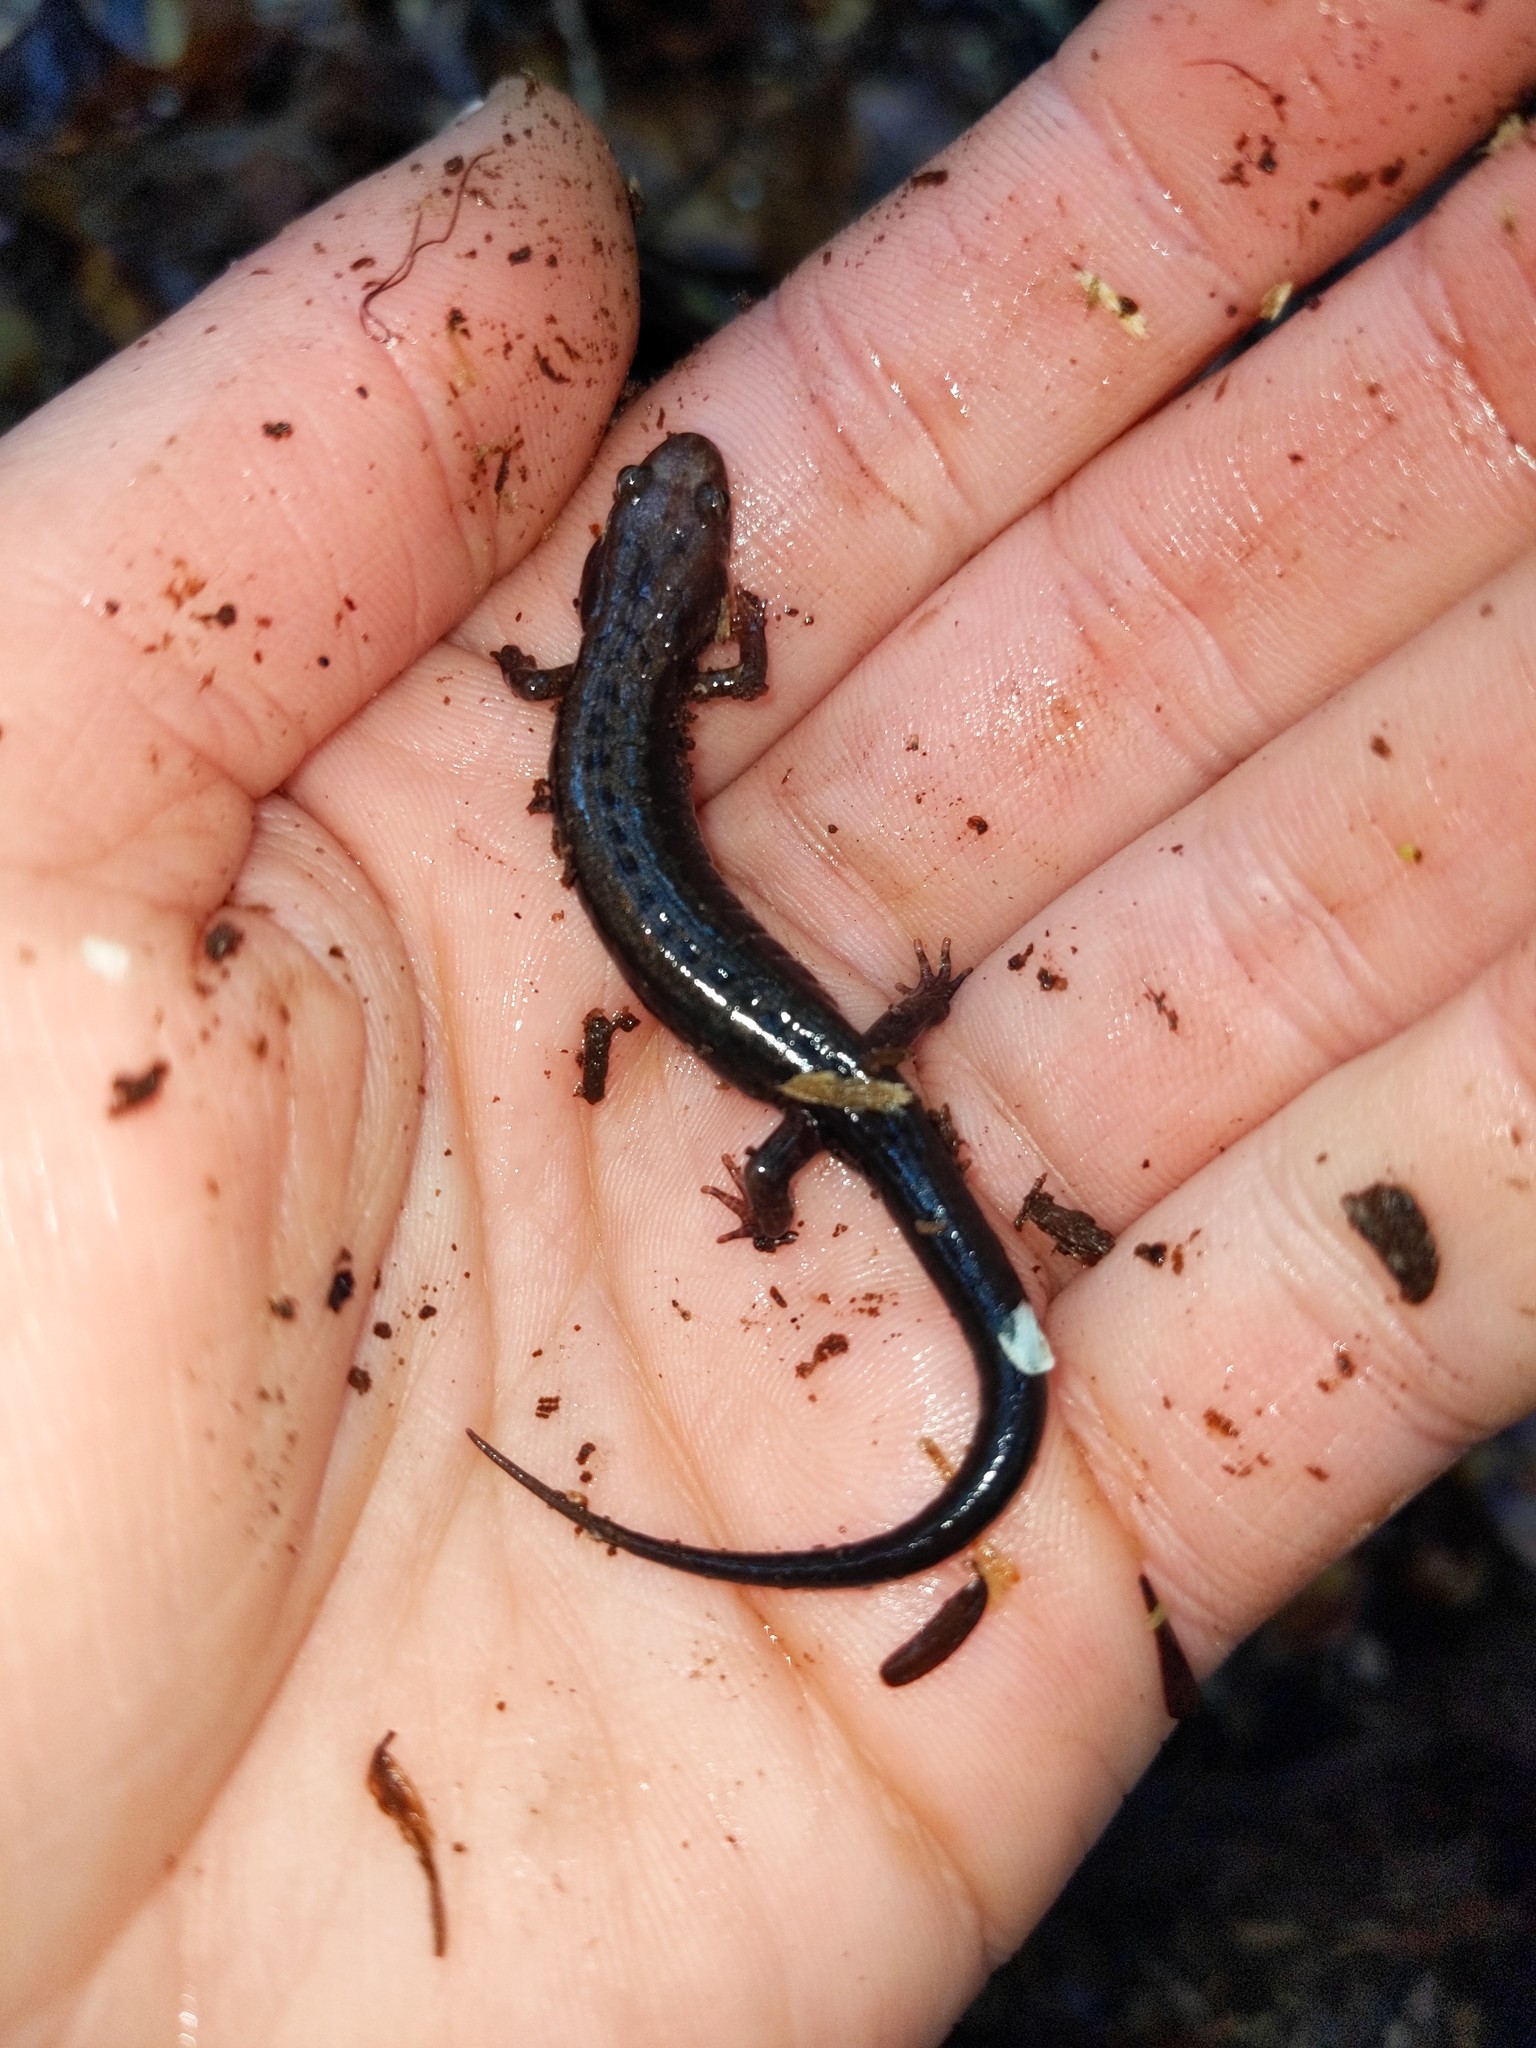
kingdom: Animalia
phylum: Chordata
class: Amphibia
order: Caudata
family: Plethodontidae
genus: Desmognathus
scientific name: Desmognathus ochrophaeus
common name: Allegheny mountain dusky salamander
